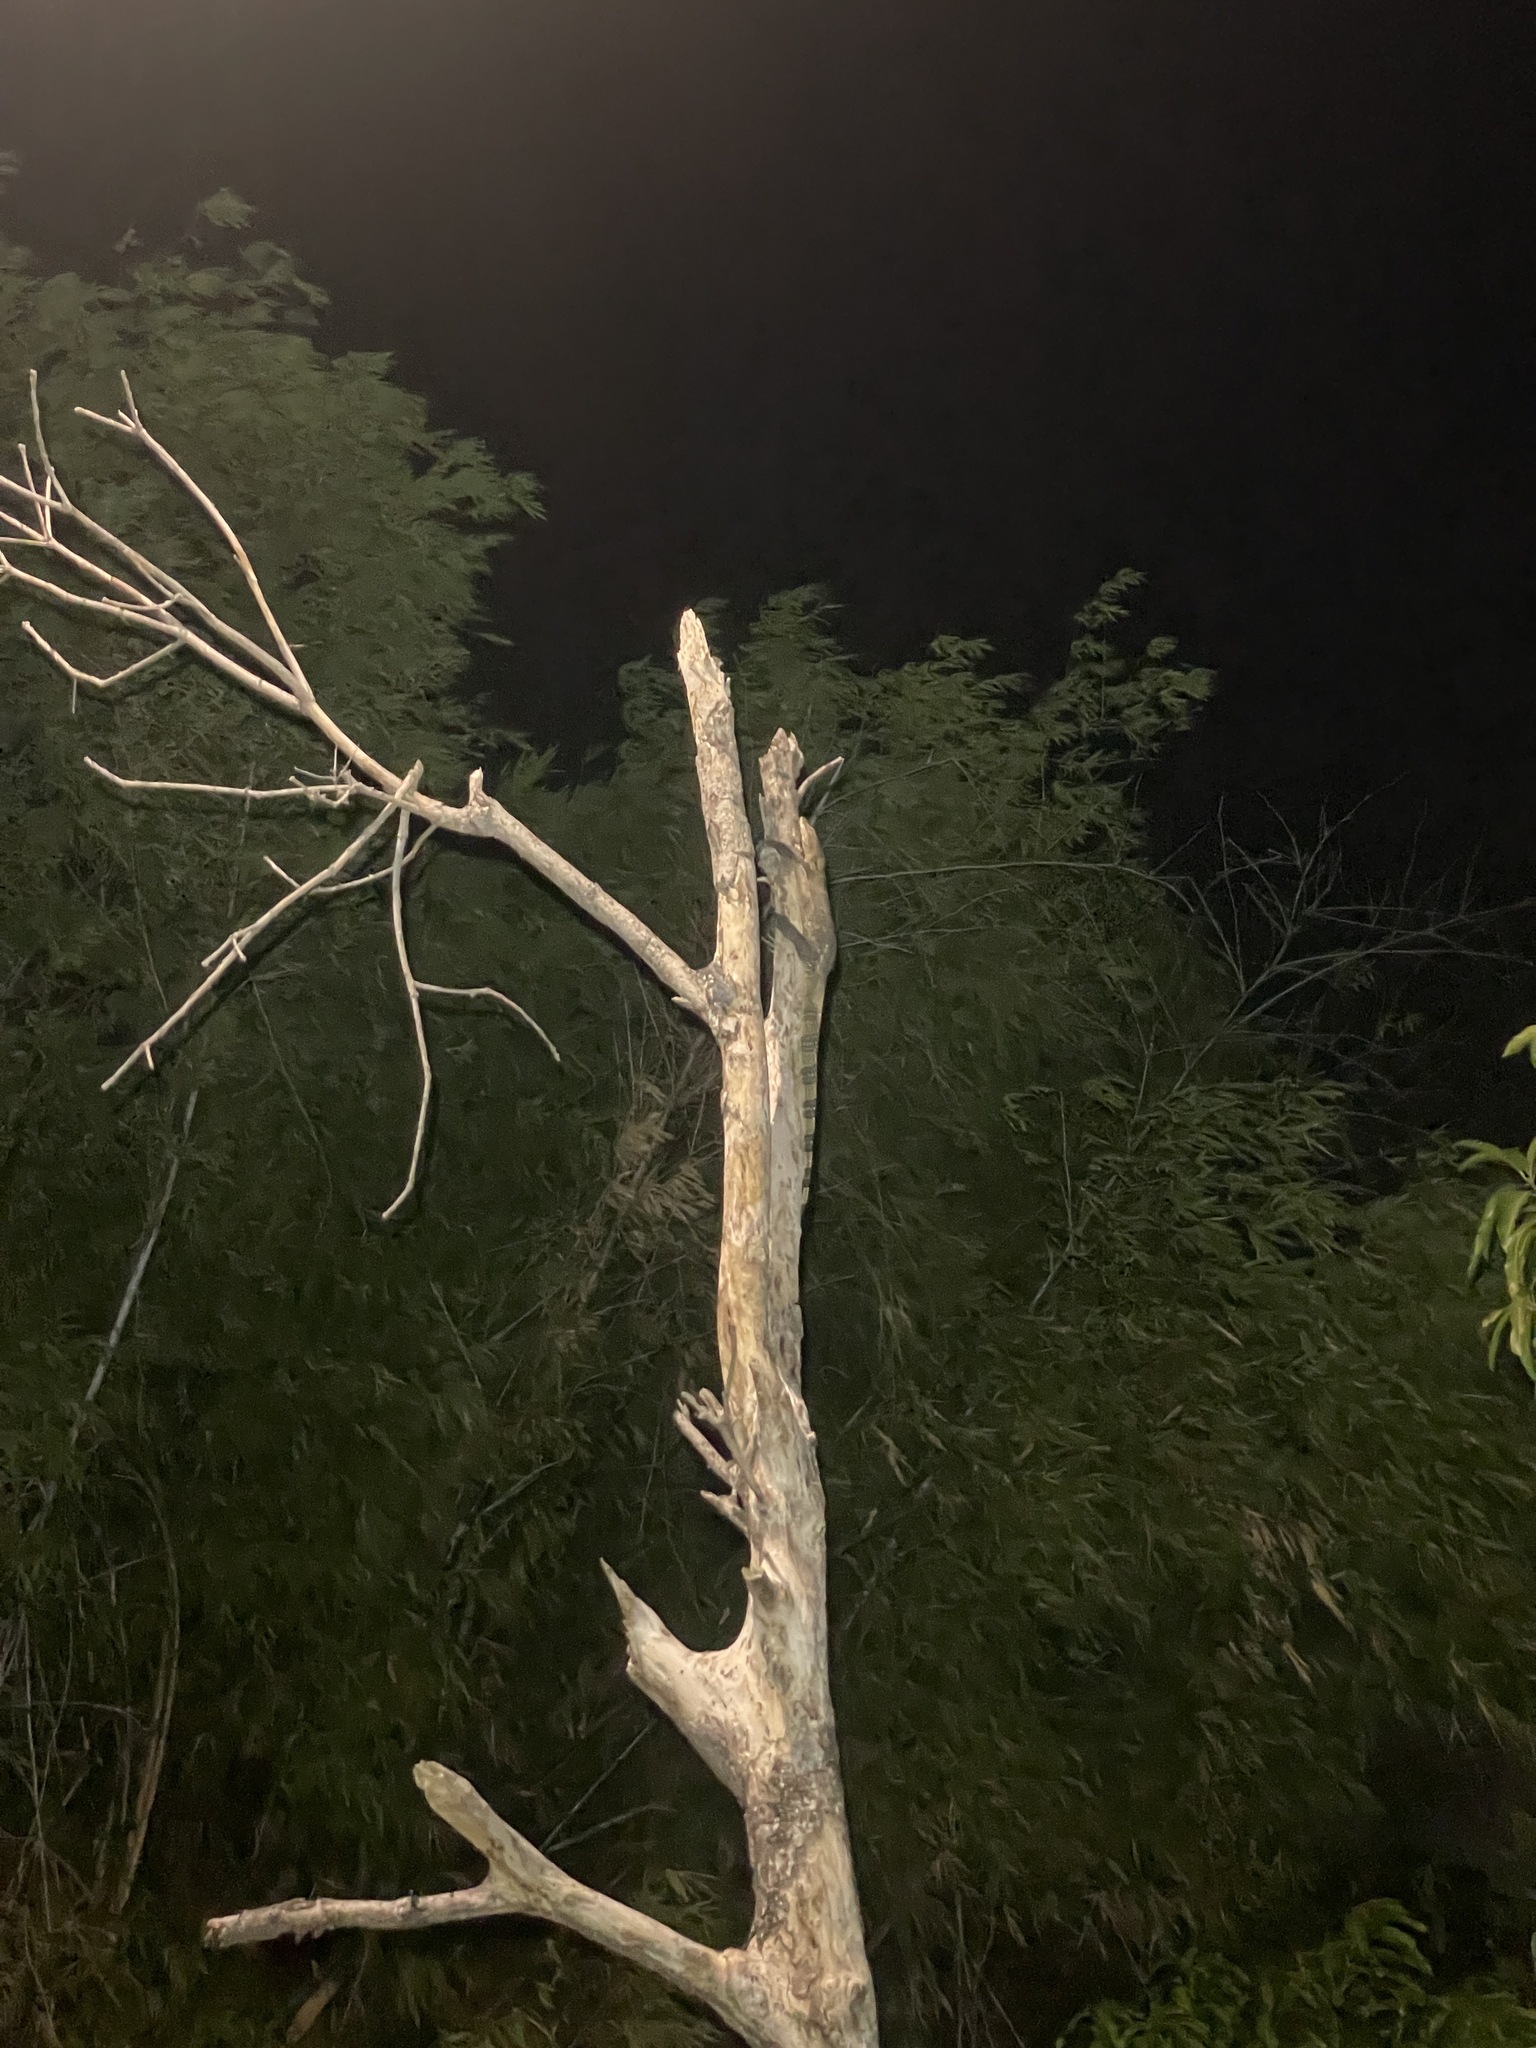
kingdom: Animalia
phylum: Chordata
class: Squamata
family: Varanidae
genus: Varanus
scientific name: Varanus salvator
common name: Common water monitor
